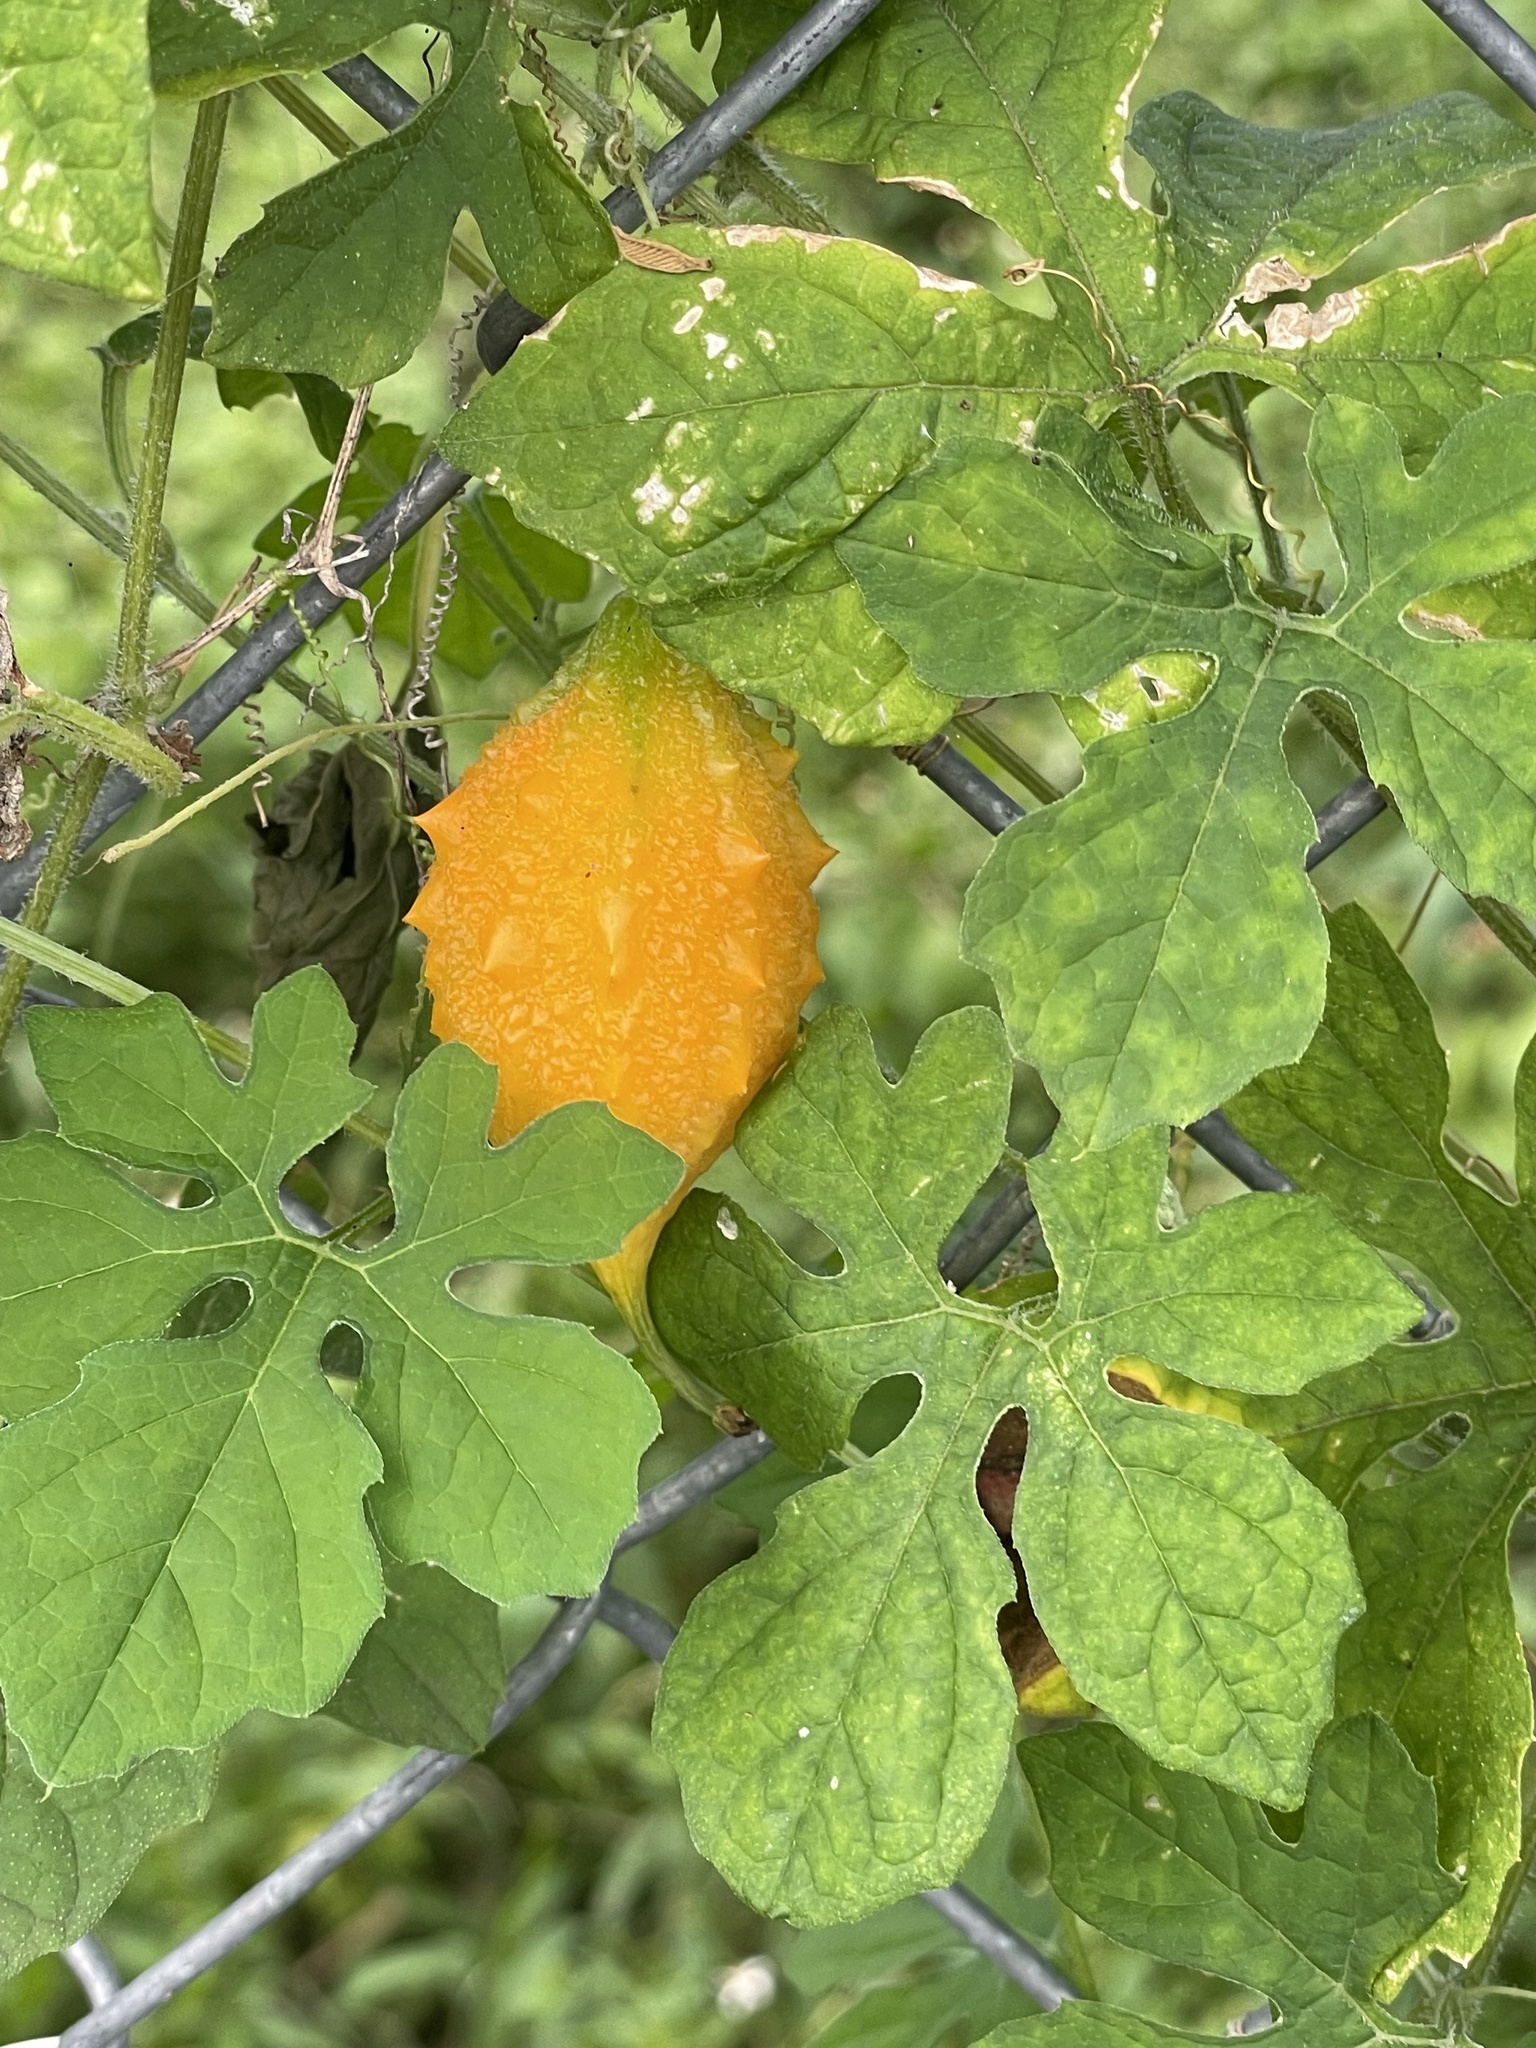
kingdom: Plantae
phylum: Tracheophyta
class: Magnoliopsida
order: Cucurbitales
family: Cucurbitaceae
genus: Momordica
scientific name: Momordica charantia
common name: Balsampear
